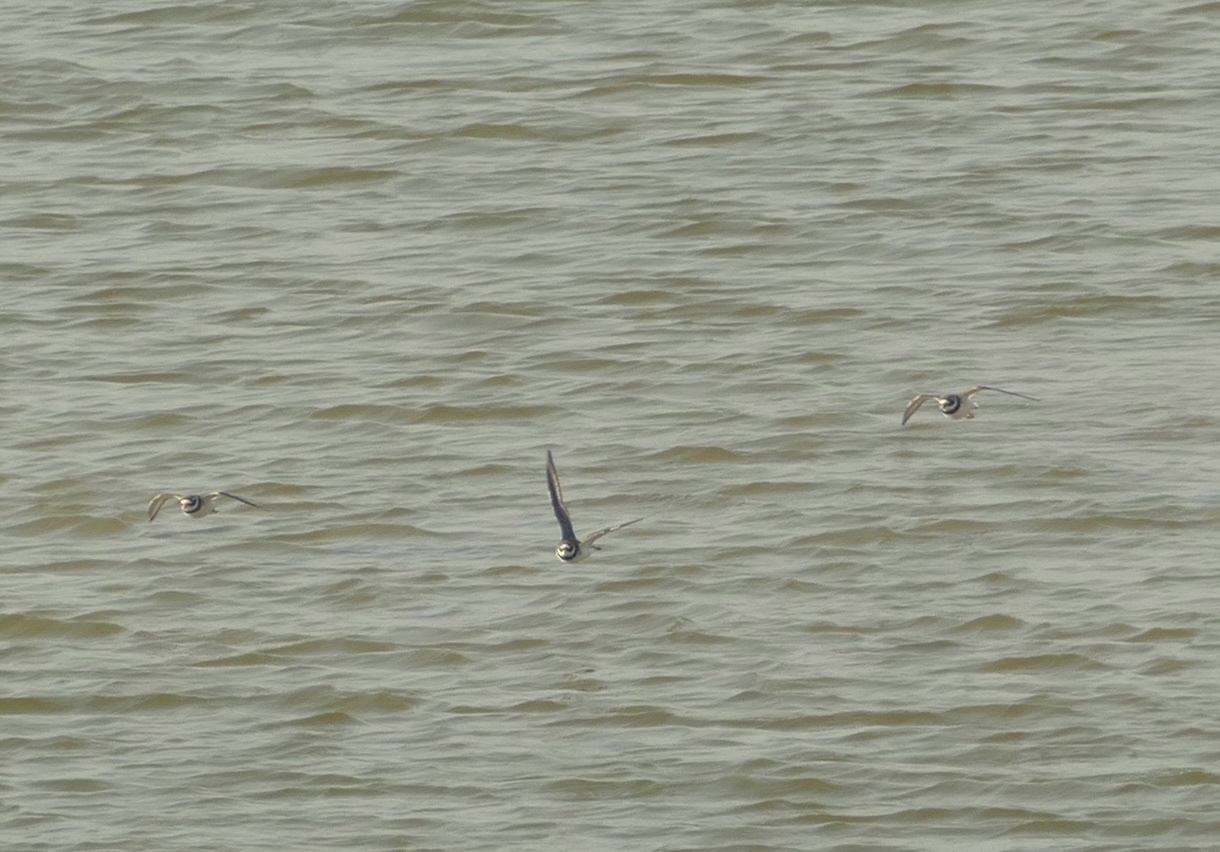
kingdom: Animalia
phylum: Chordata
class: Aves
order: Charadriiformes
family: Charadriidae
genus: Charadrius
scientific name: Charadrius hiaticula
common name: Common ringed plover
